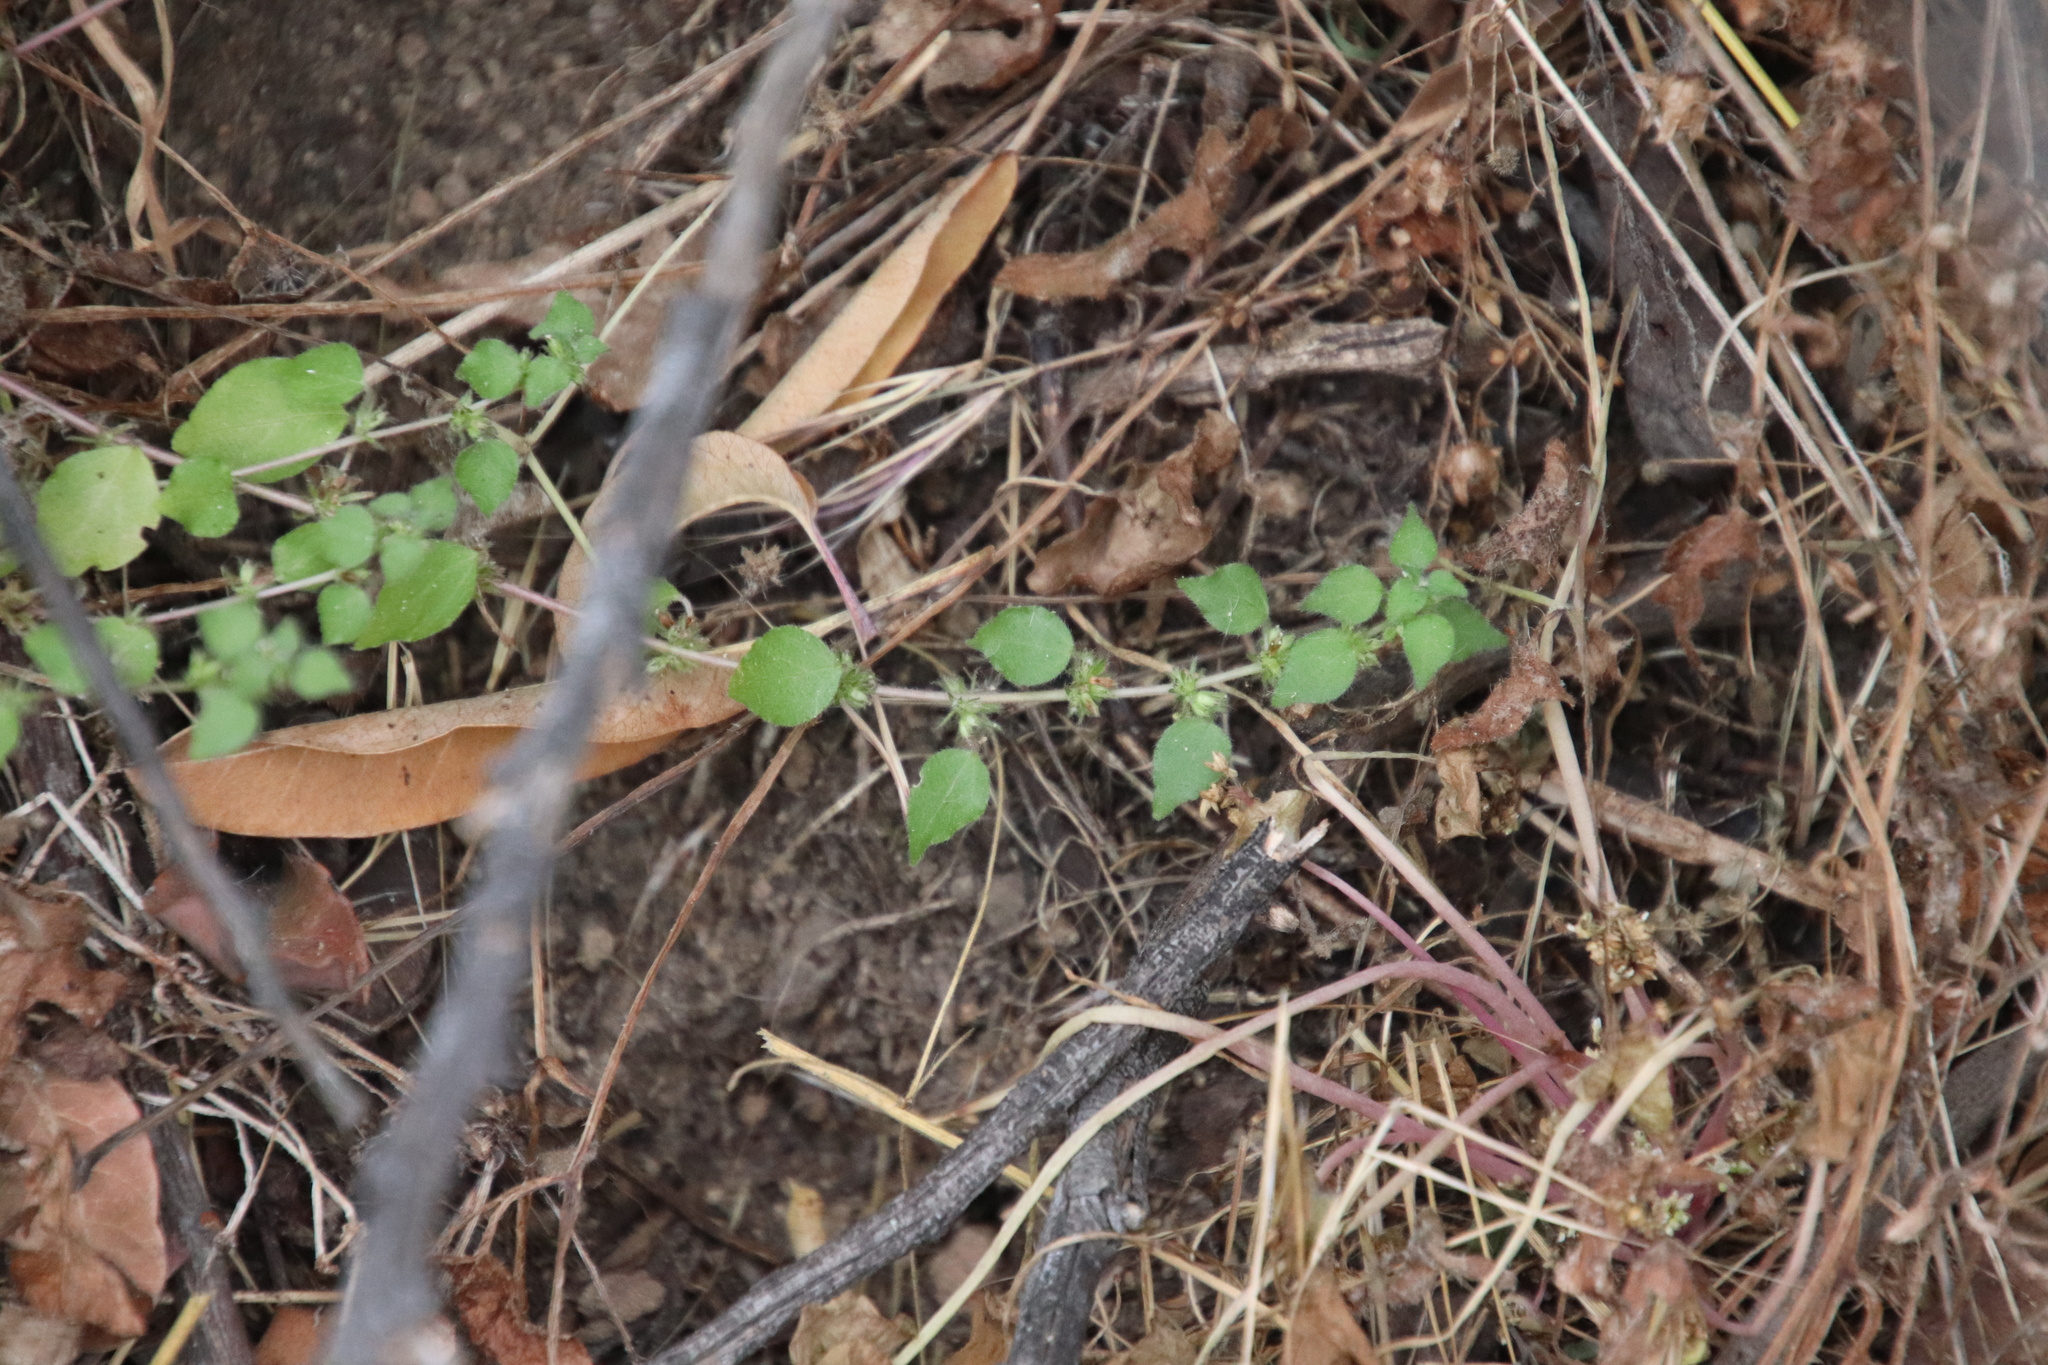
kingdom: Plantae
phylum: Tracheophyta
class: Magnoliopsida
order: Rosales
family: Urticaceae
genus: Parietaria
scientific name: Parietaria hespera
